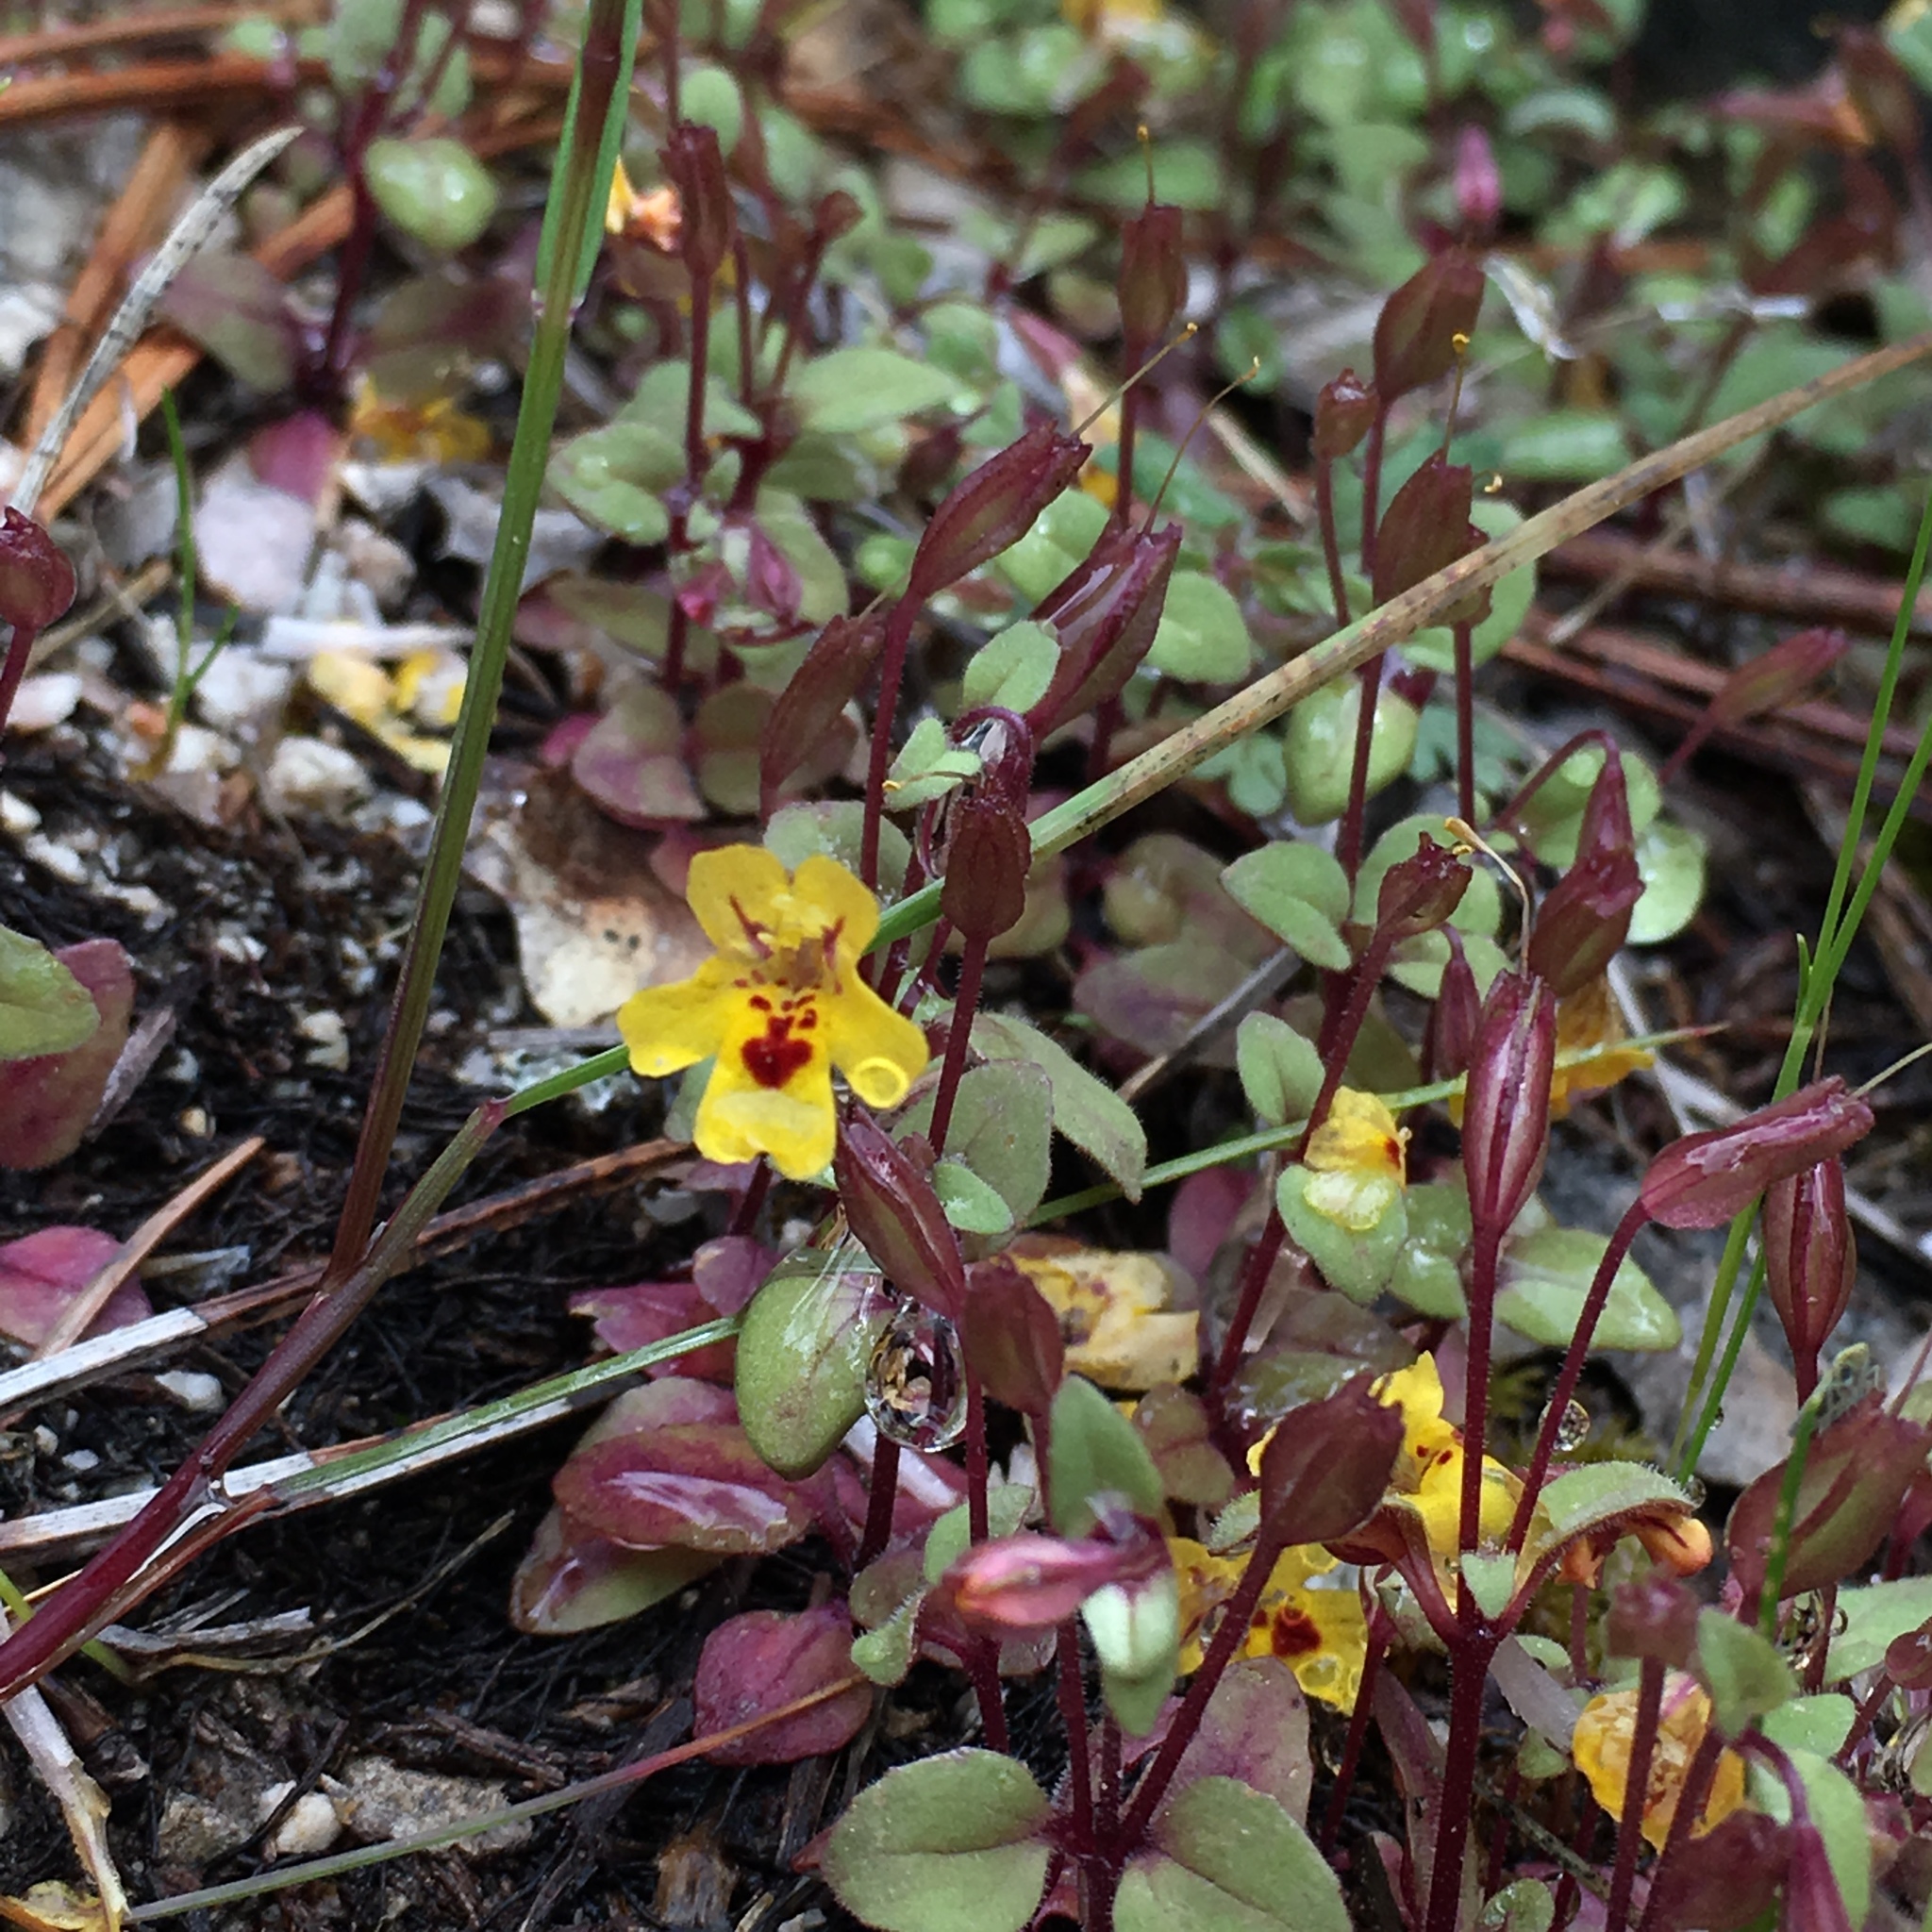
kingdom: Plantae
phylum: Tracheophyta
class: Magnoliopsida
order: Lamiales
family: Phrymaceae
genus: Erythranthe
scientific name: Erythranthe alsinoides
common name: Chickweed monkeyflower
